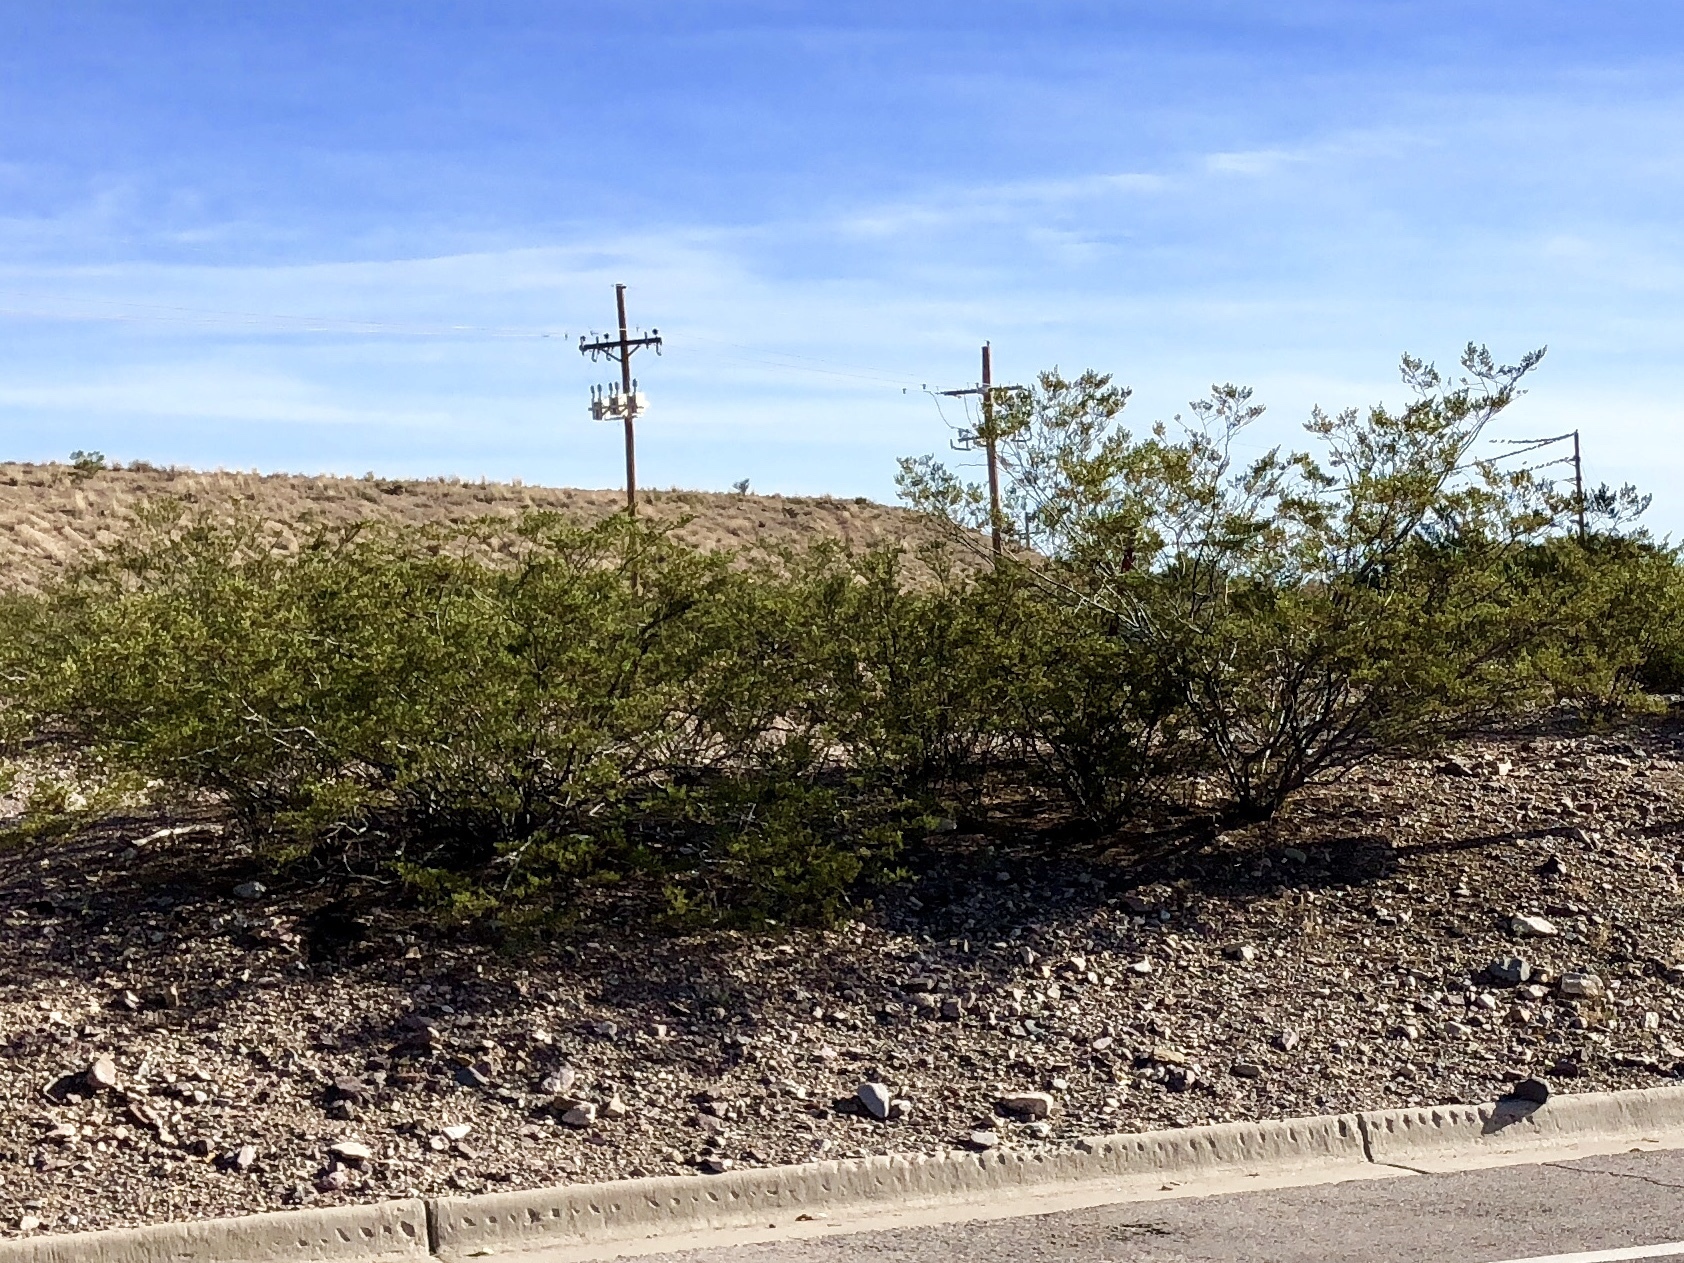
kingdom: Plantae
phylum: Tracheophyta
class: Magnoliopsida
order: Zygophyllales
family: Zygophyllaceae
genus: Larrea
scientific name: Larrea tridentata
